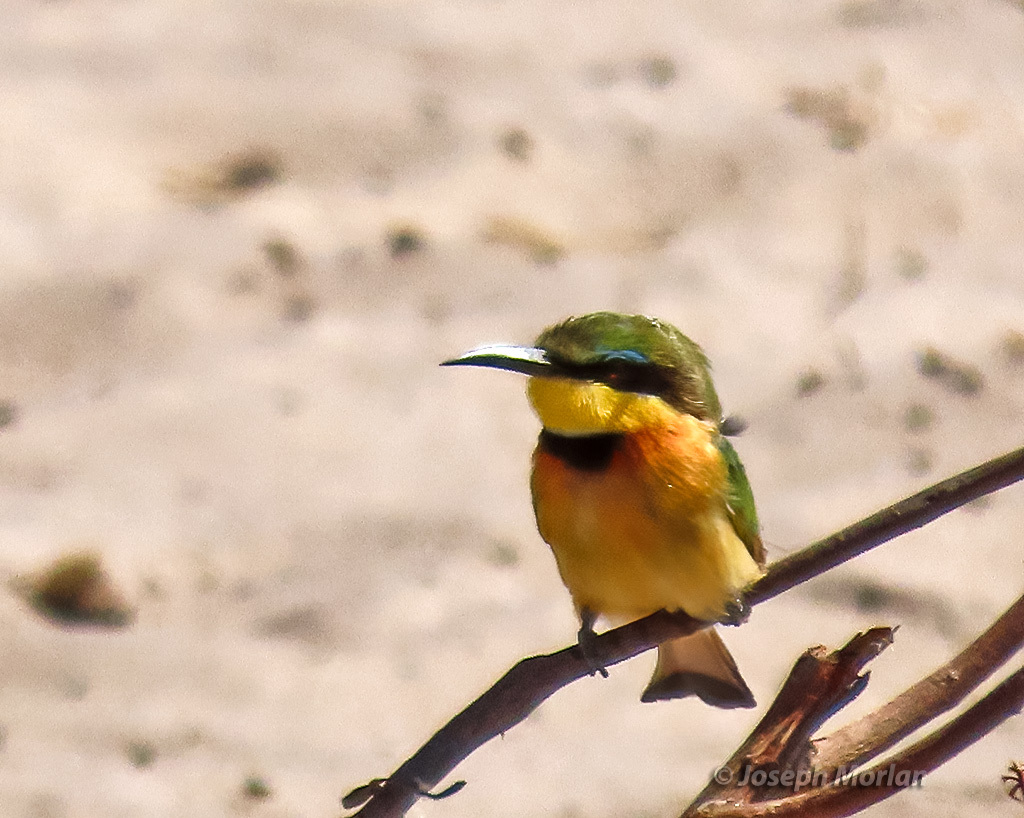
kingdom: Animalia
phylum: Chordata
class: Aves
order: Coraciiformes
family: Meropidae
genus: Merops
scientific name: Merops pusillus
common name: Little bee-eater
